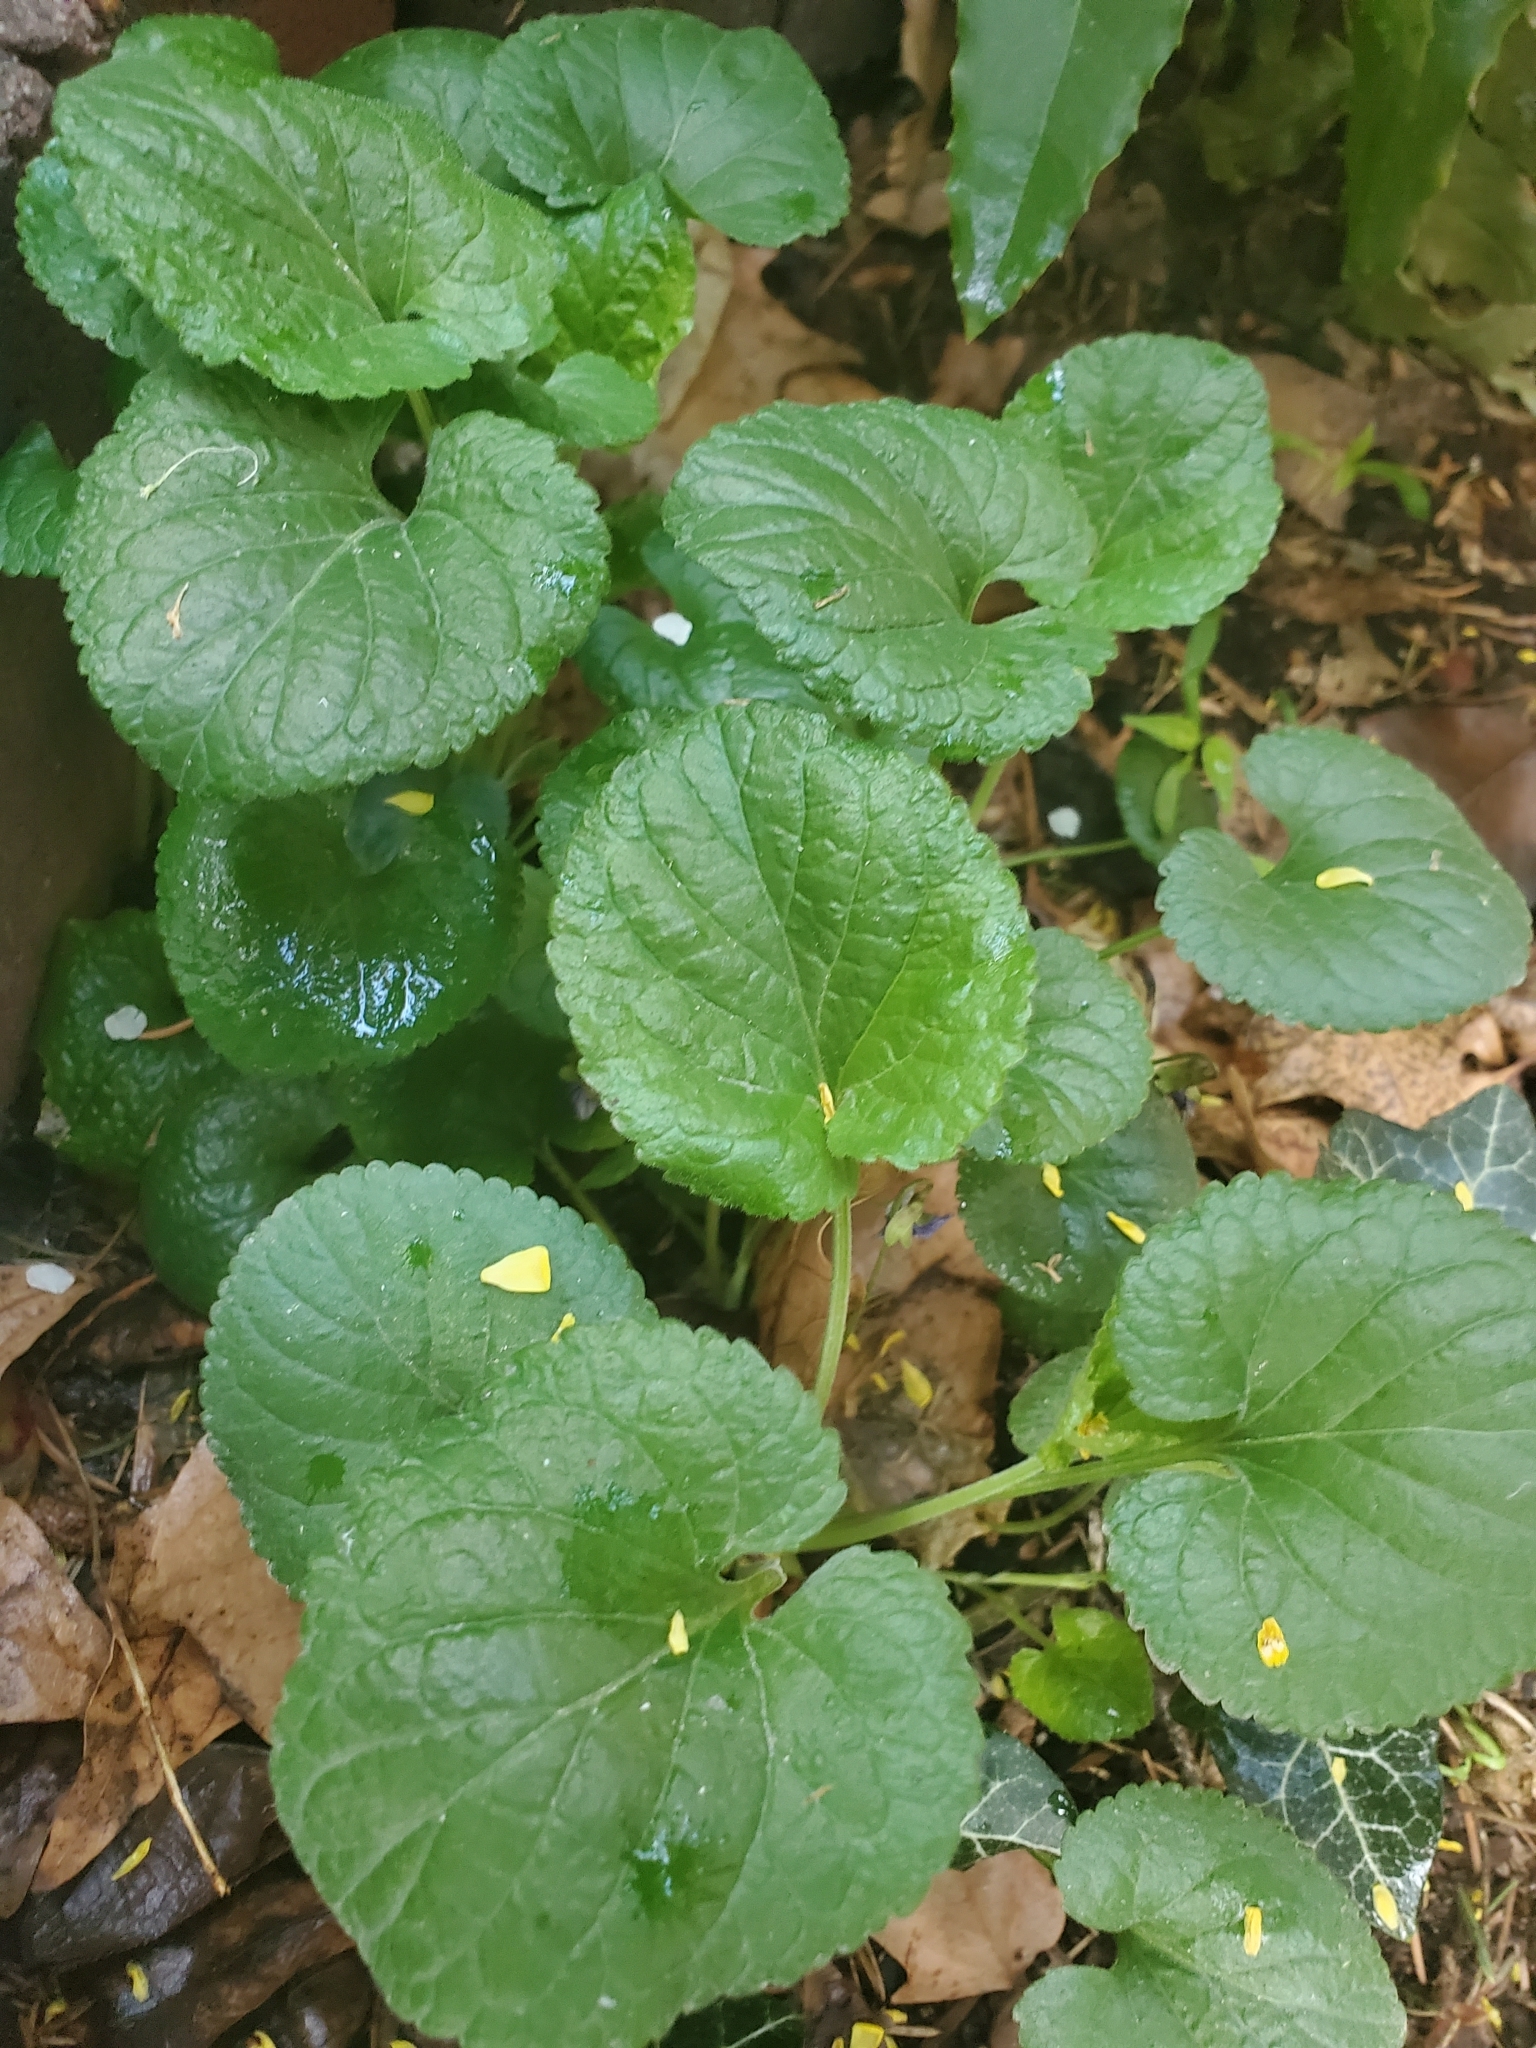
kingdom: Plantae
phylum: Tracheophyta
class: Magnoliopsida
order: Malpighiales
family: Violaceae
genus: Viola
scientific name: Viola odorata
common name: Sweet violet
